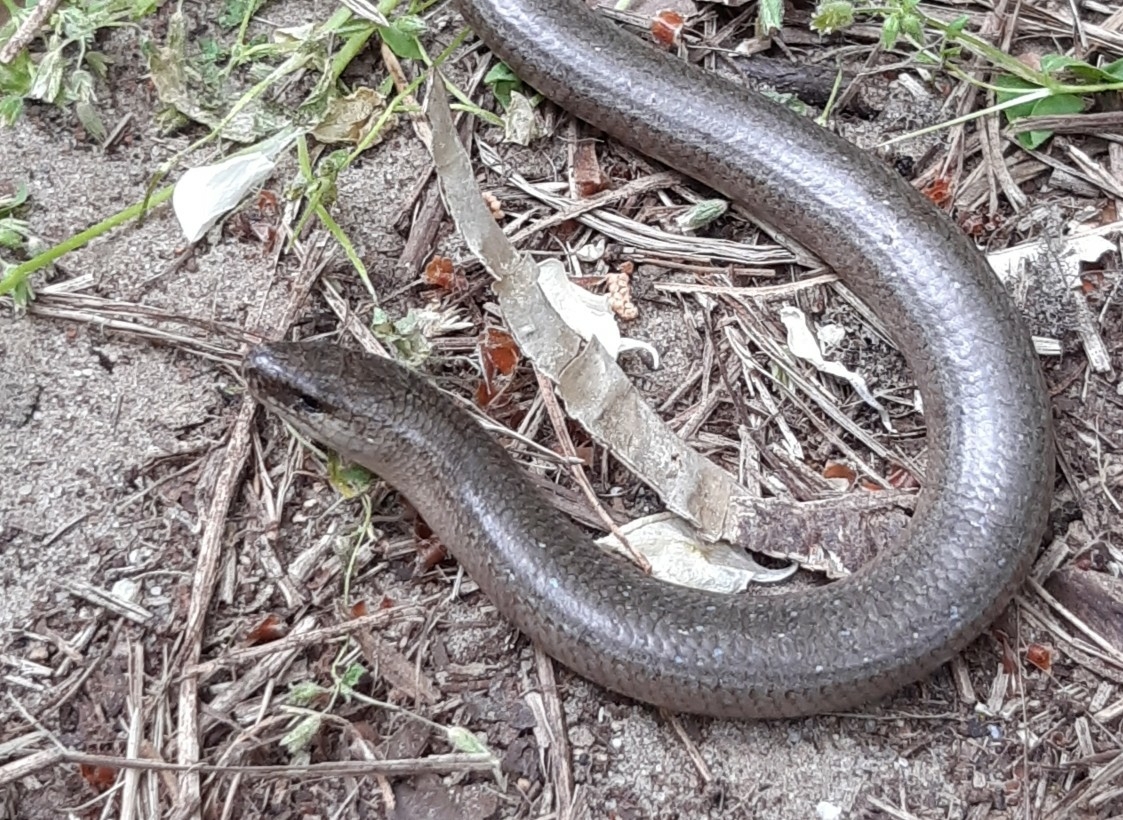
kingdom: Animalia
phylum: Chordata
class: Squamata
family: Anguidae
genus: Anguis
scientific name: Anguis fragilis
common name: Slow worm
